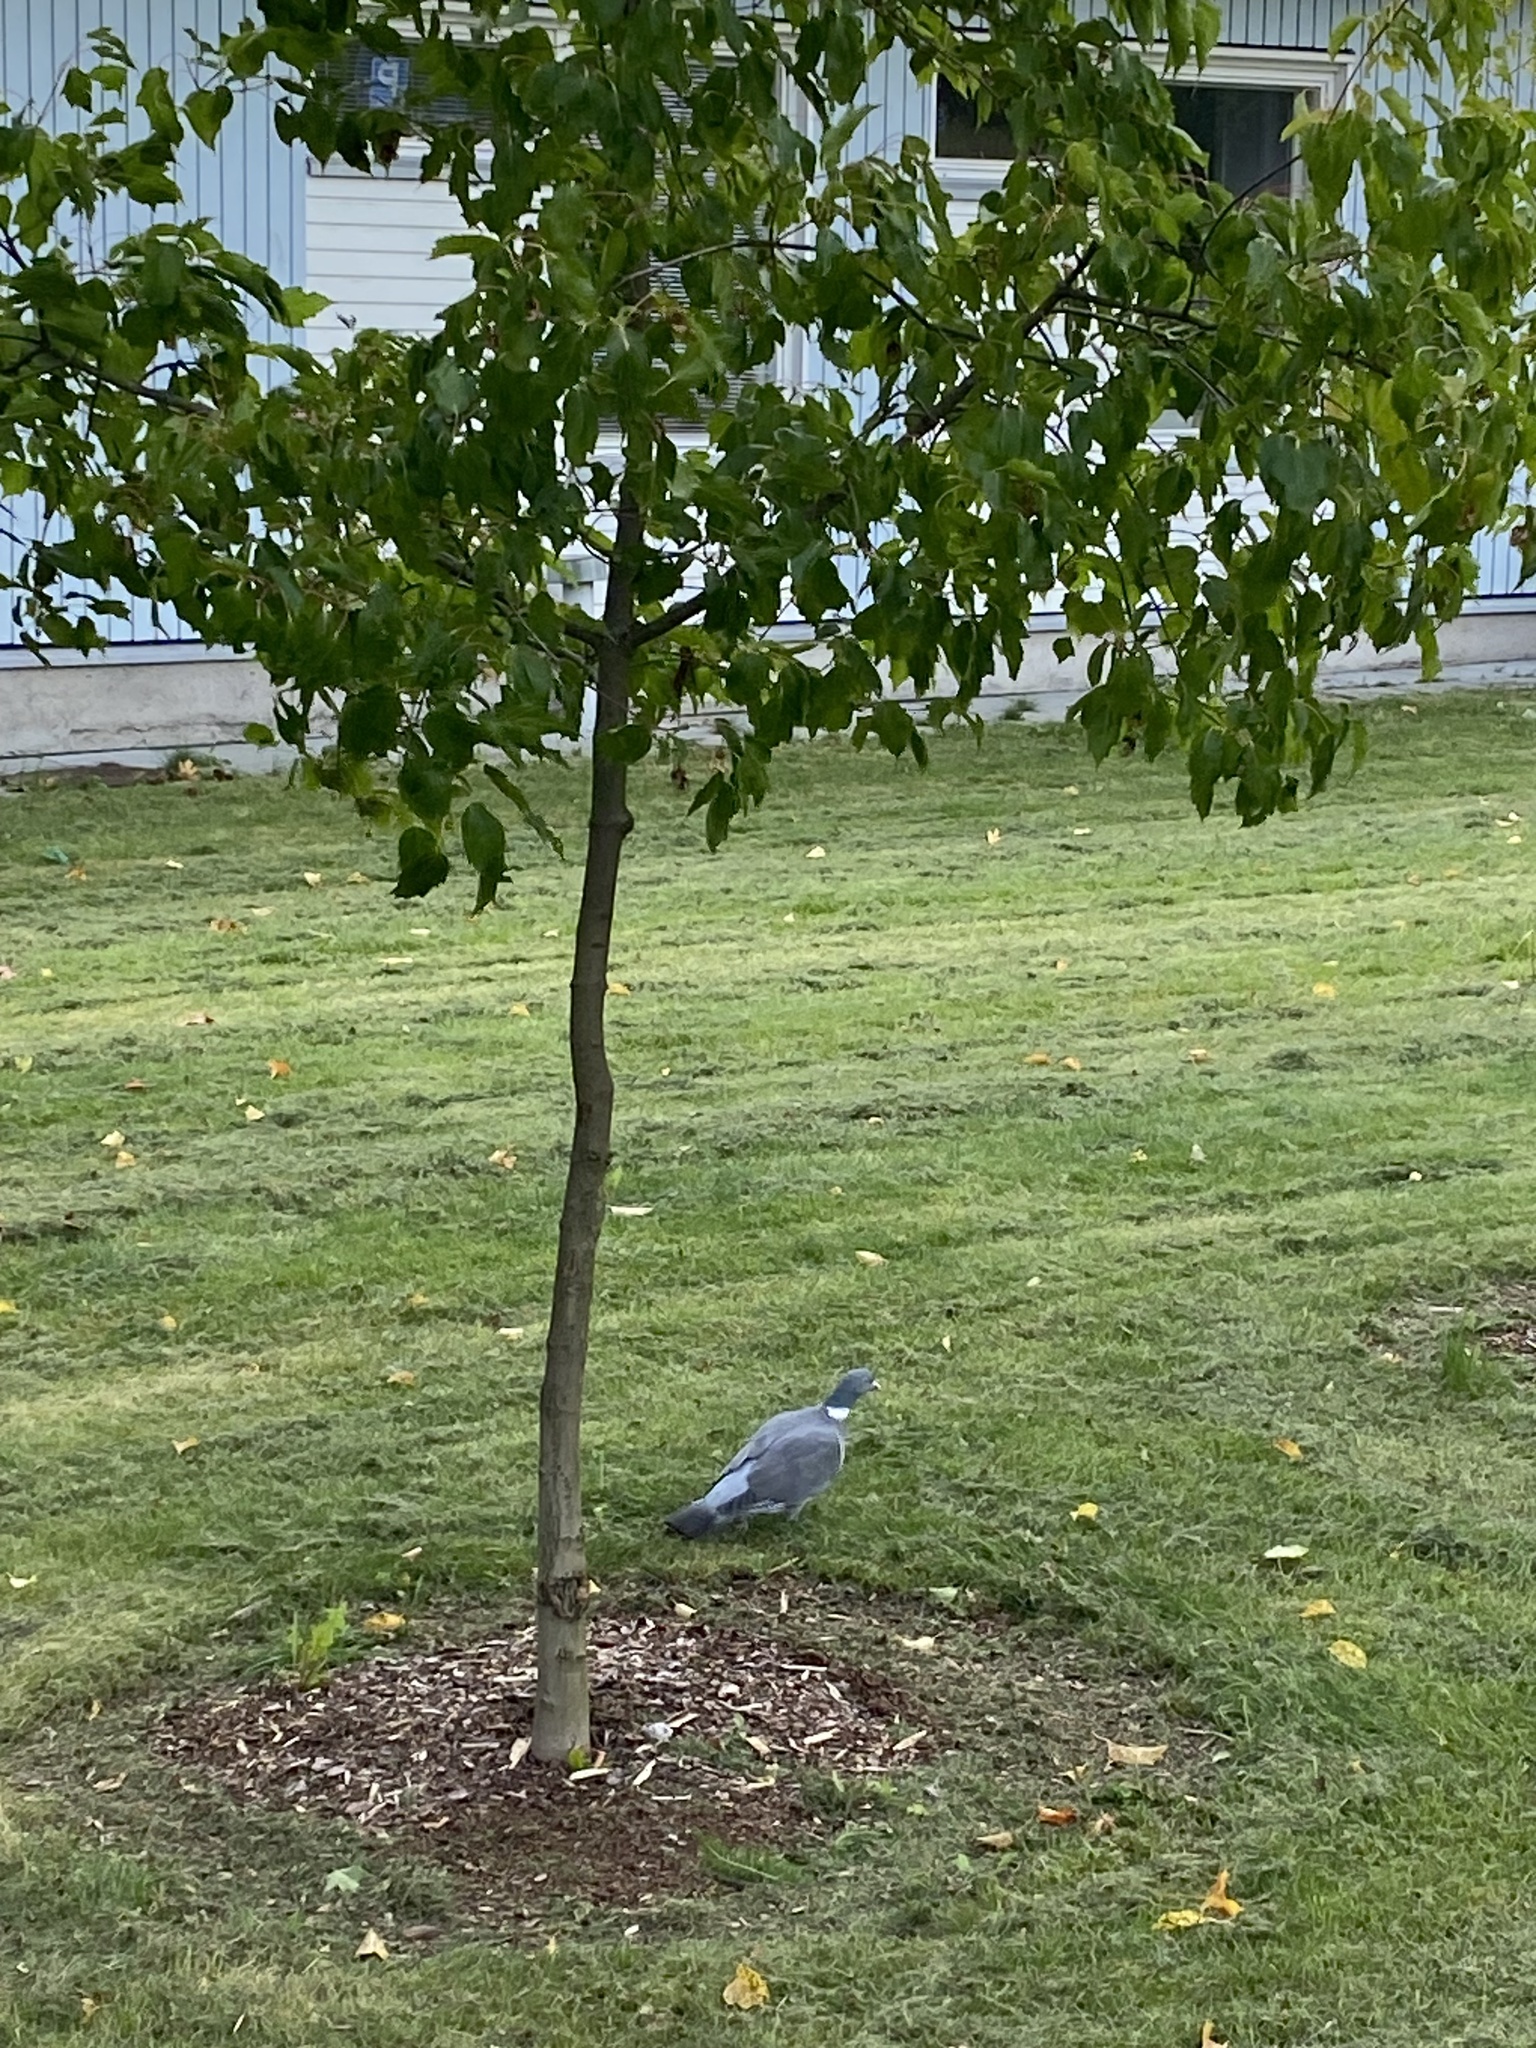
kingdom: Animalia
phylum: Chordata
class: Aves
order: Columbiformes
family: Columbidae
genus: Columba
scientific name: Columba palumbus
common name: Common wood pigeon
